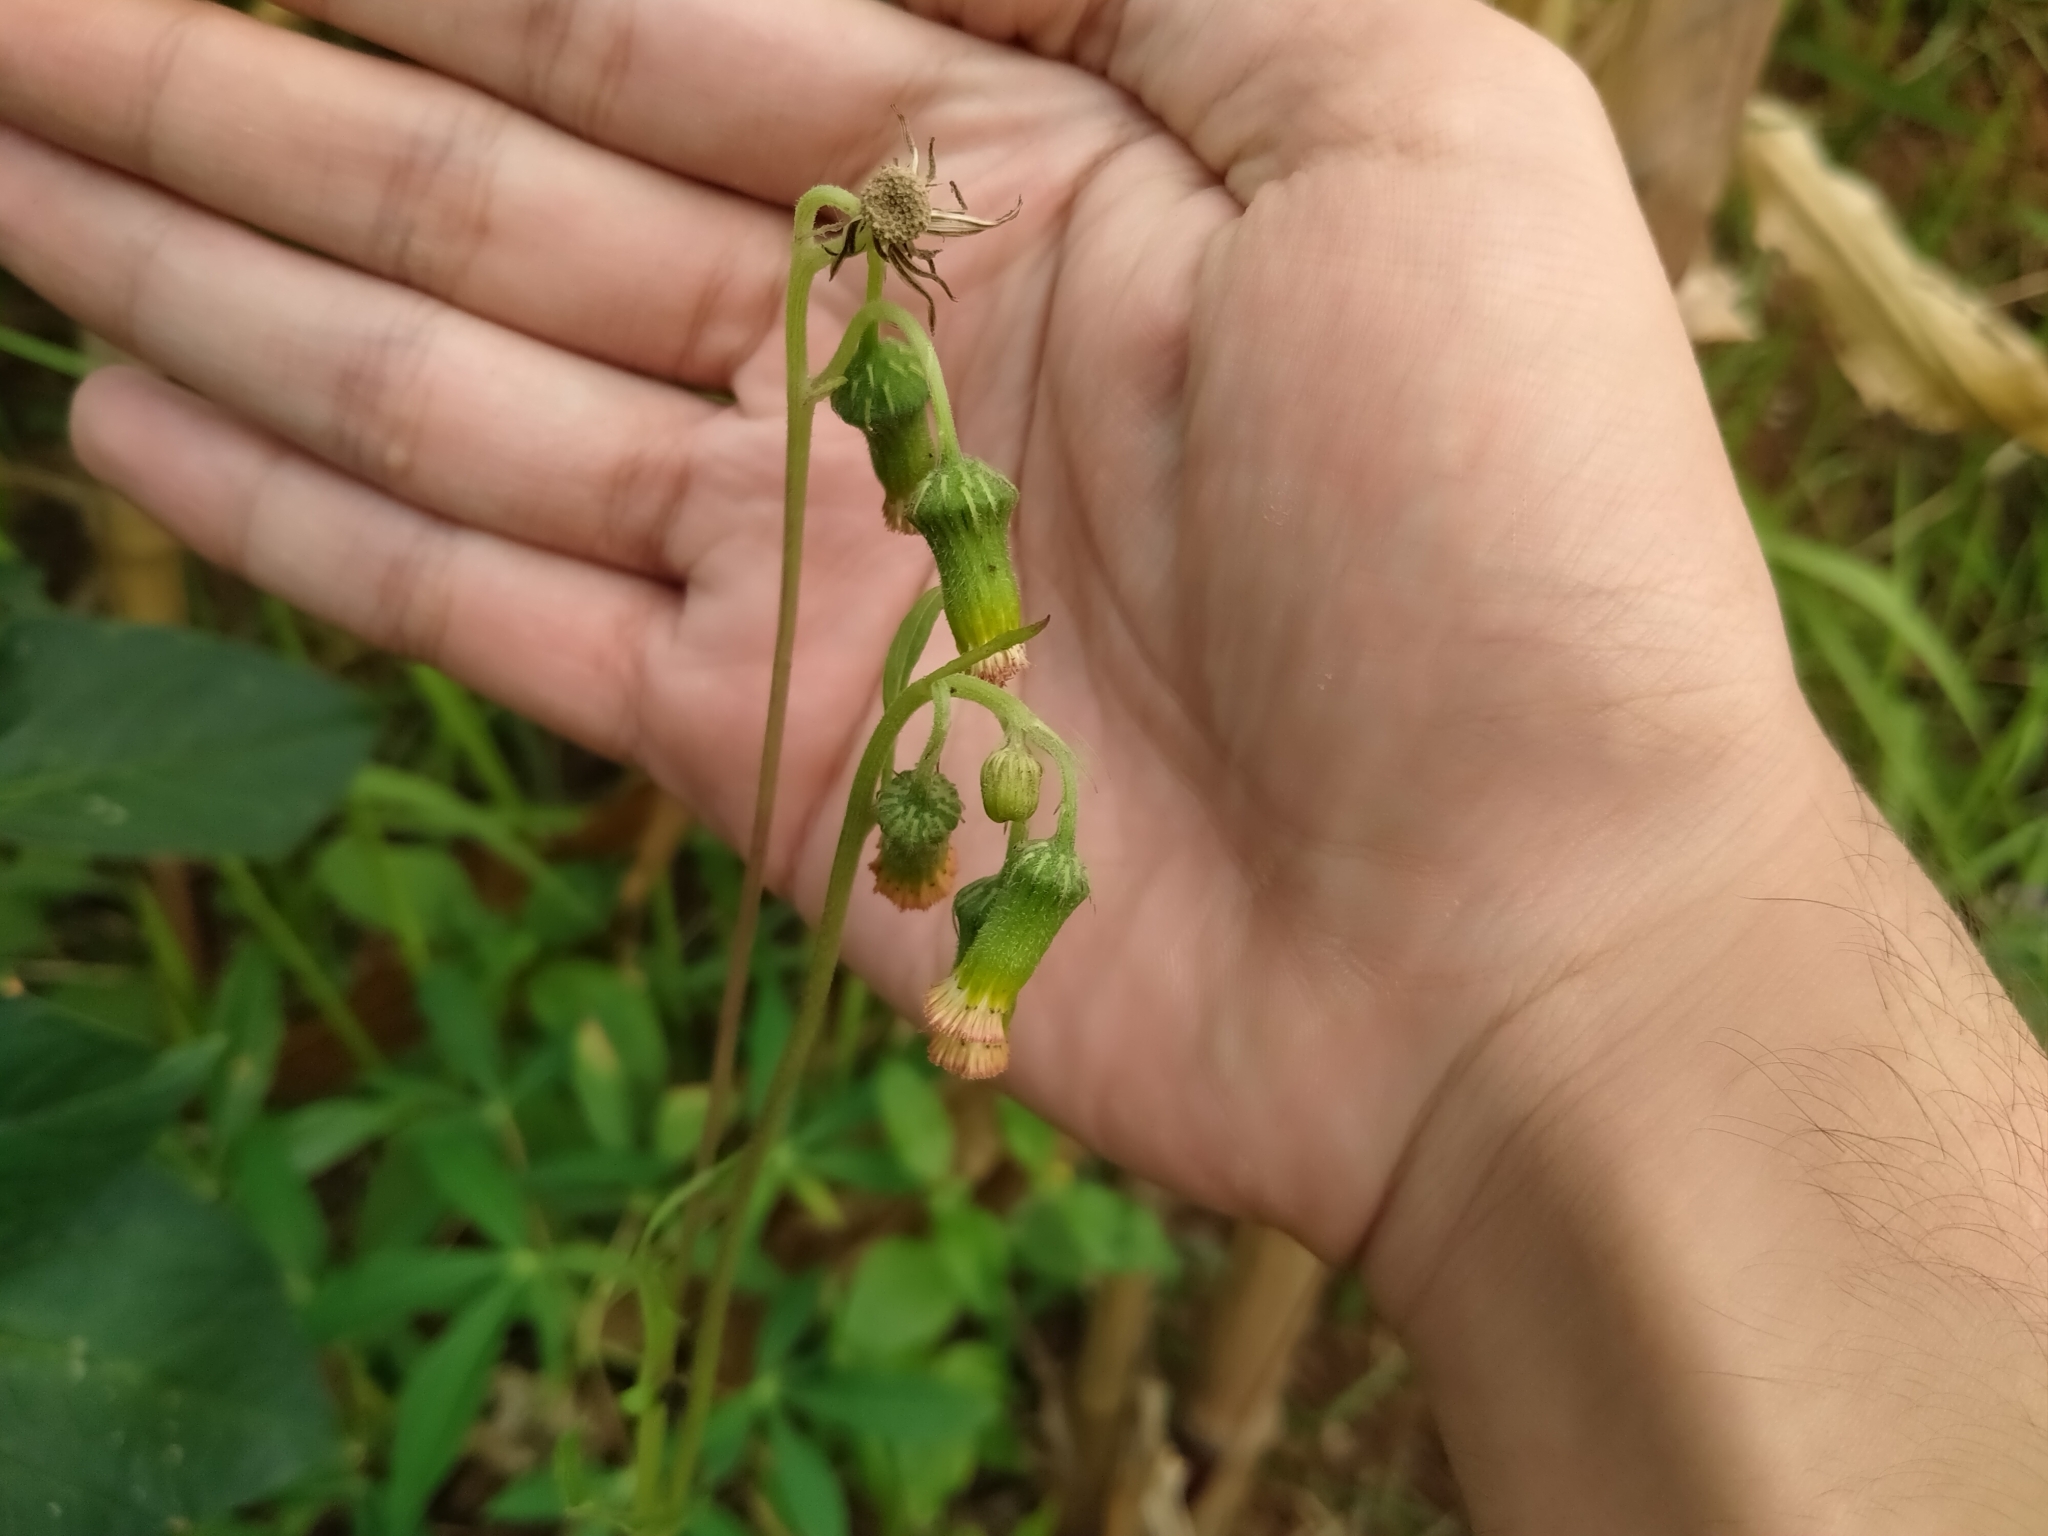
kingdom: Plantae
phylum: Tracheophyta
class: Magnoliopsida
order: Asterales
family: Asteraceae
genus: Crassocephalum
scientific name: Crassocephalum crepidioides
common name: Redflower ragleaf
